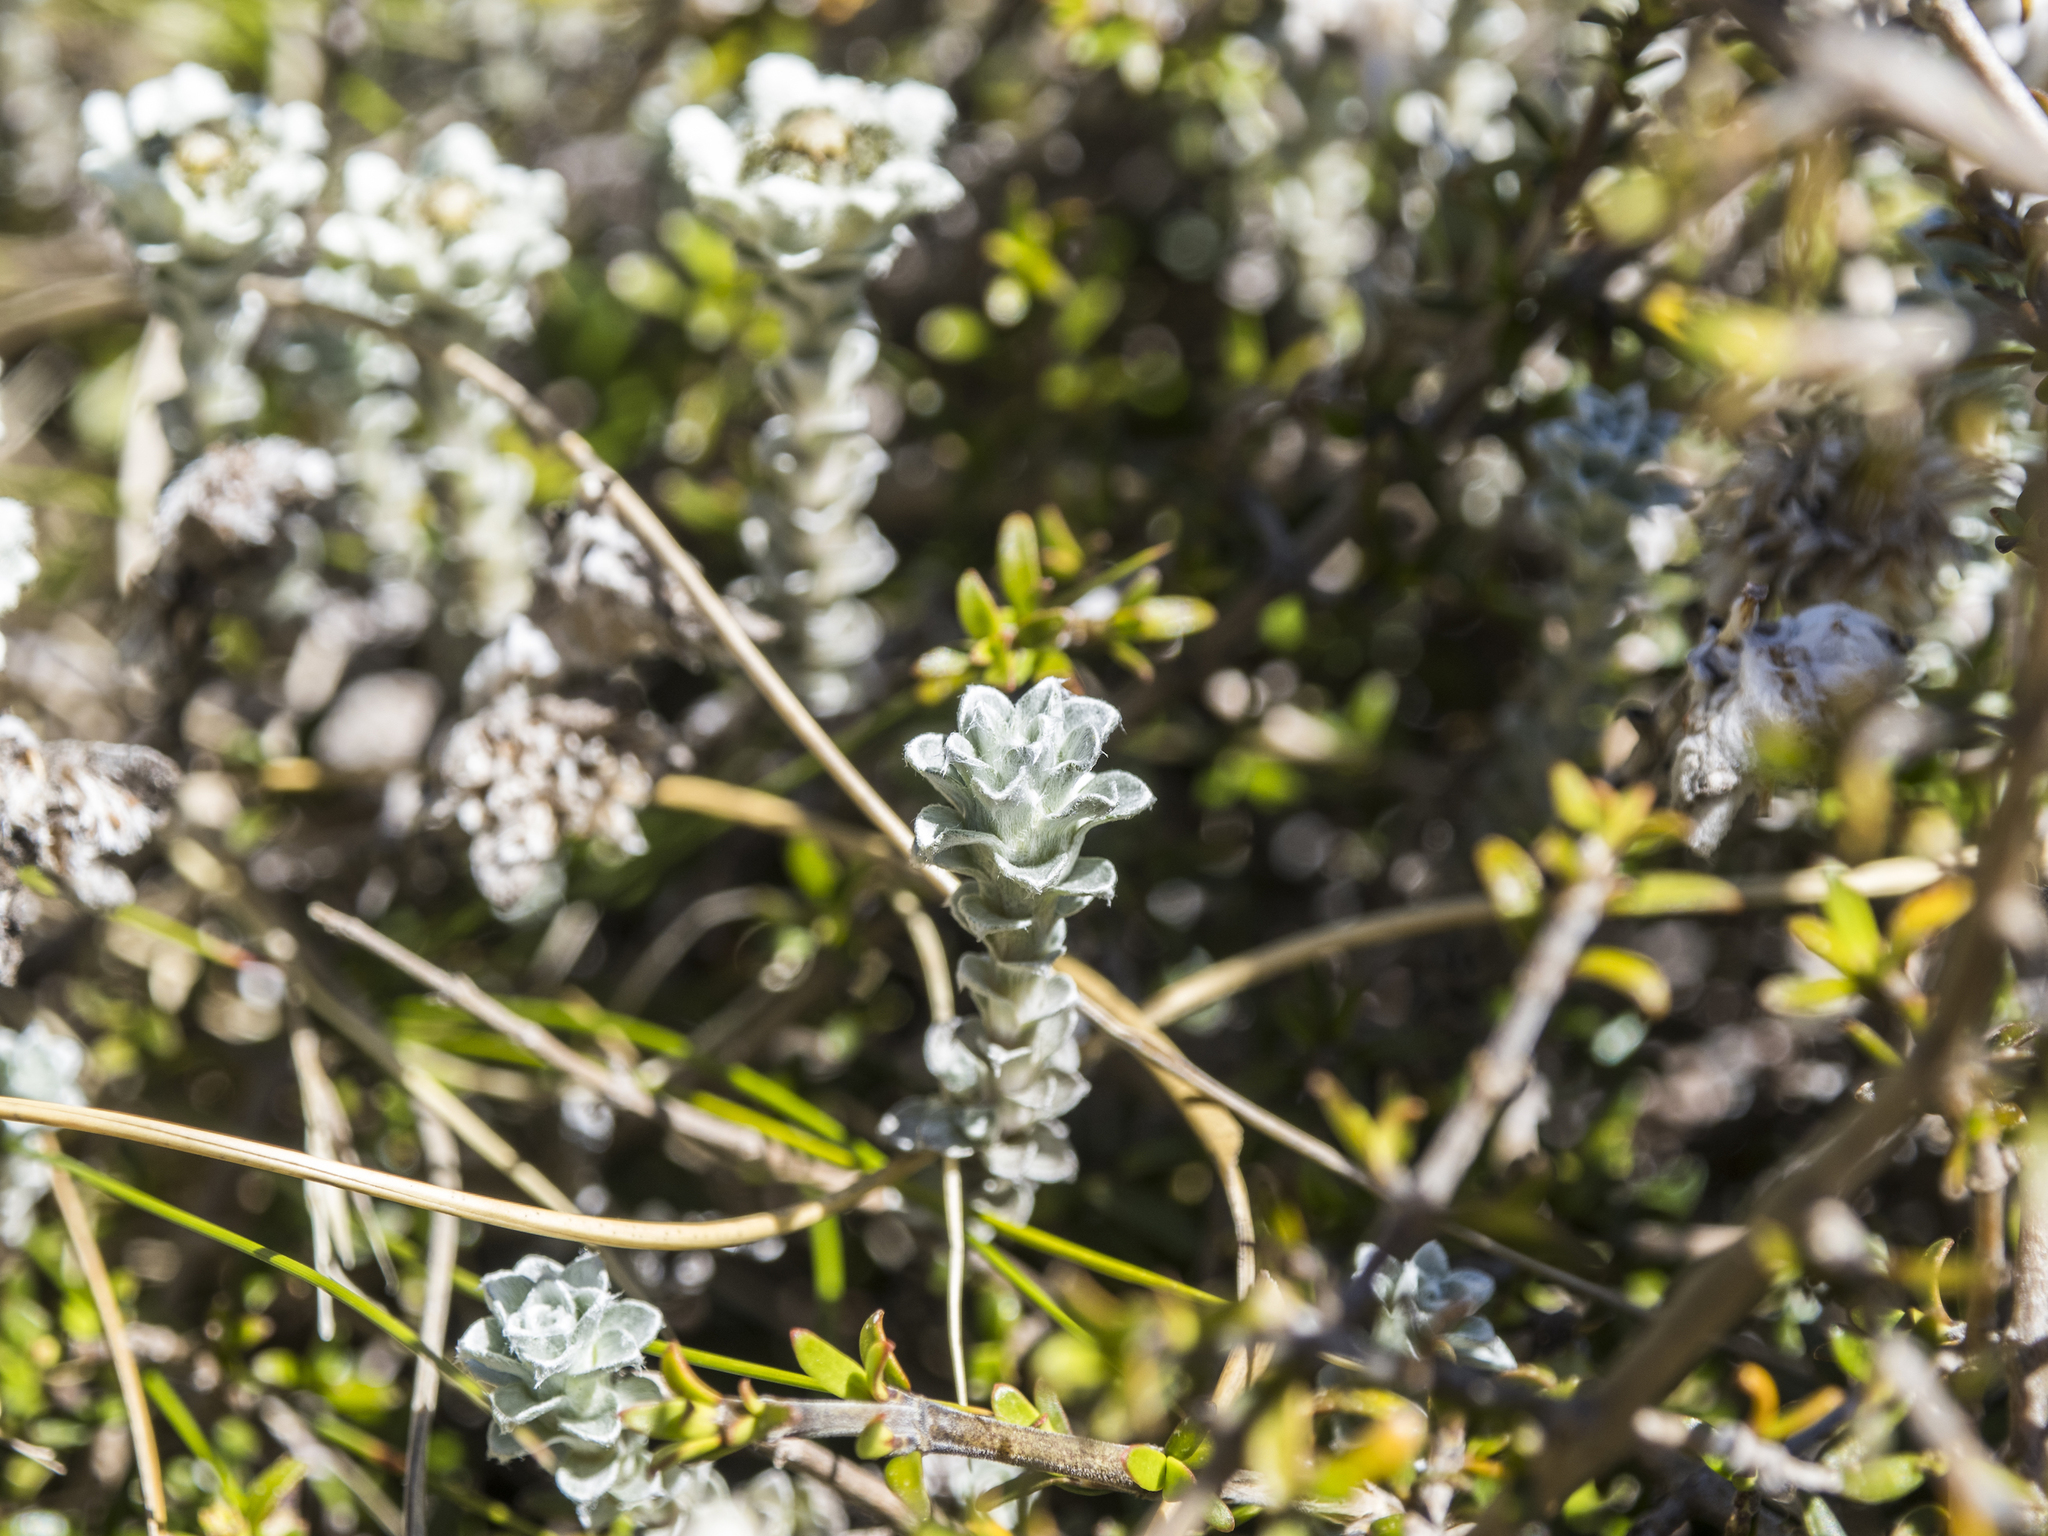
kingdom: Plantae
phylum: Tracheophyta
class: Magnoliopsida
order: Asterales
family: Asteraceae
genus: Leucogenes
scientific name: Leucogenes grandiceps
